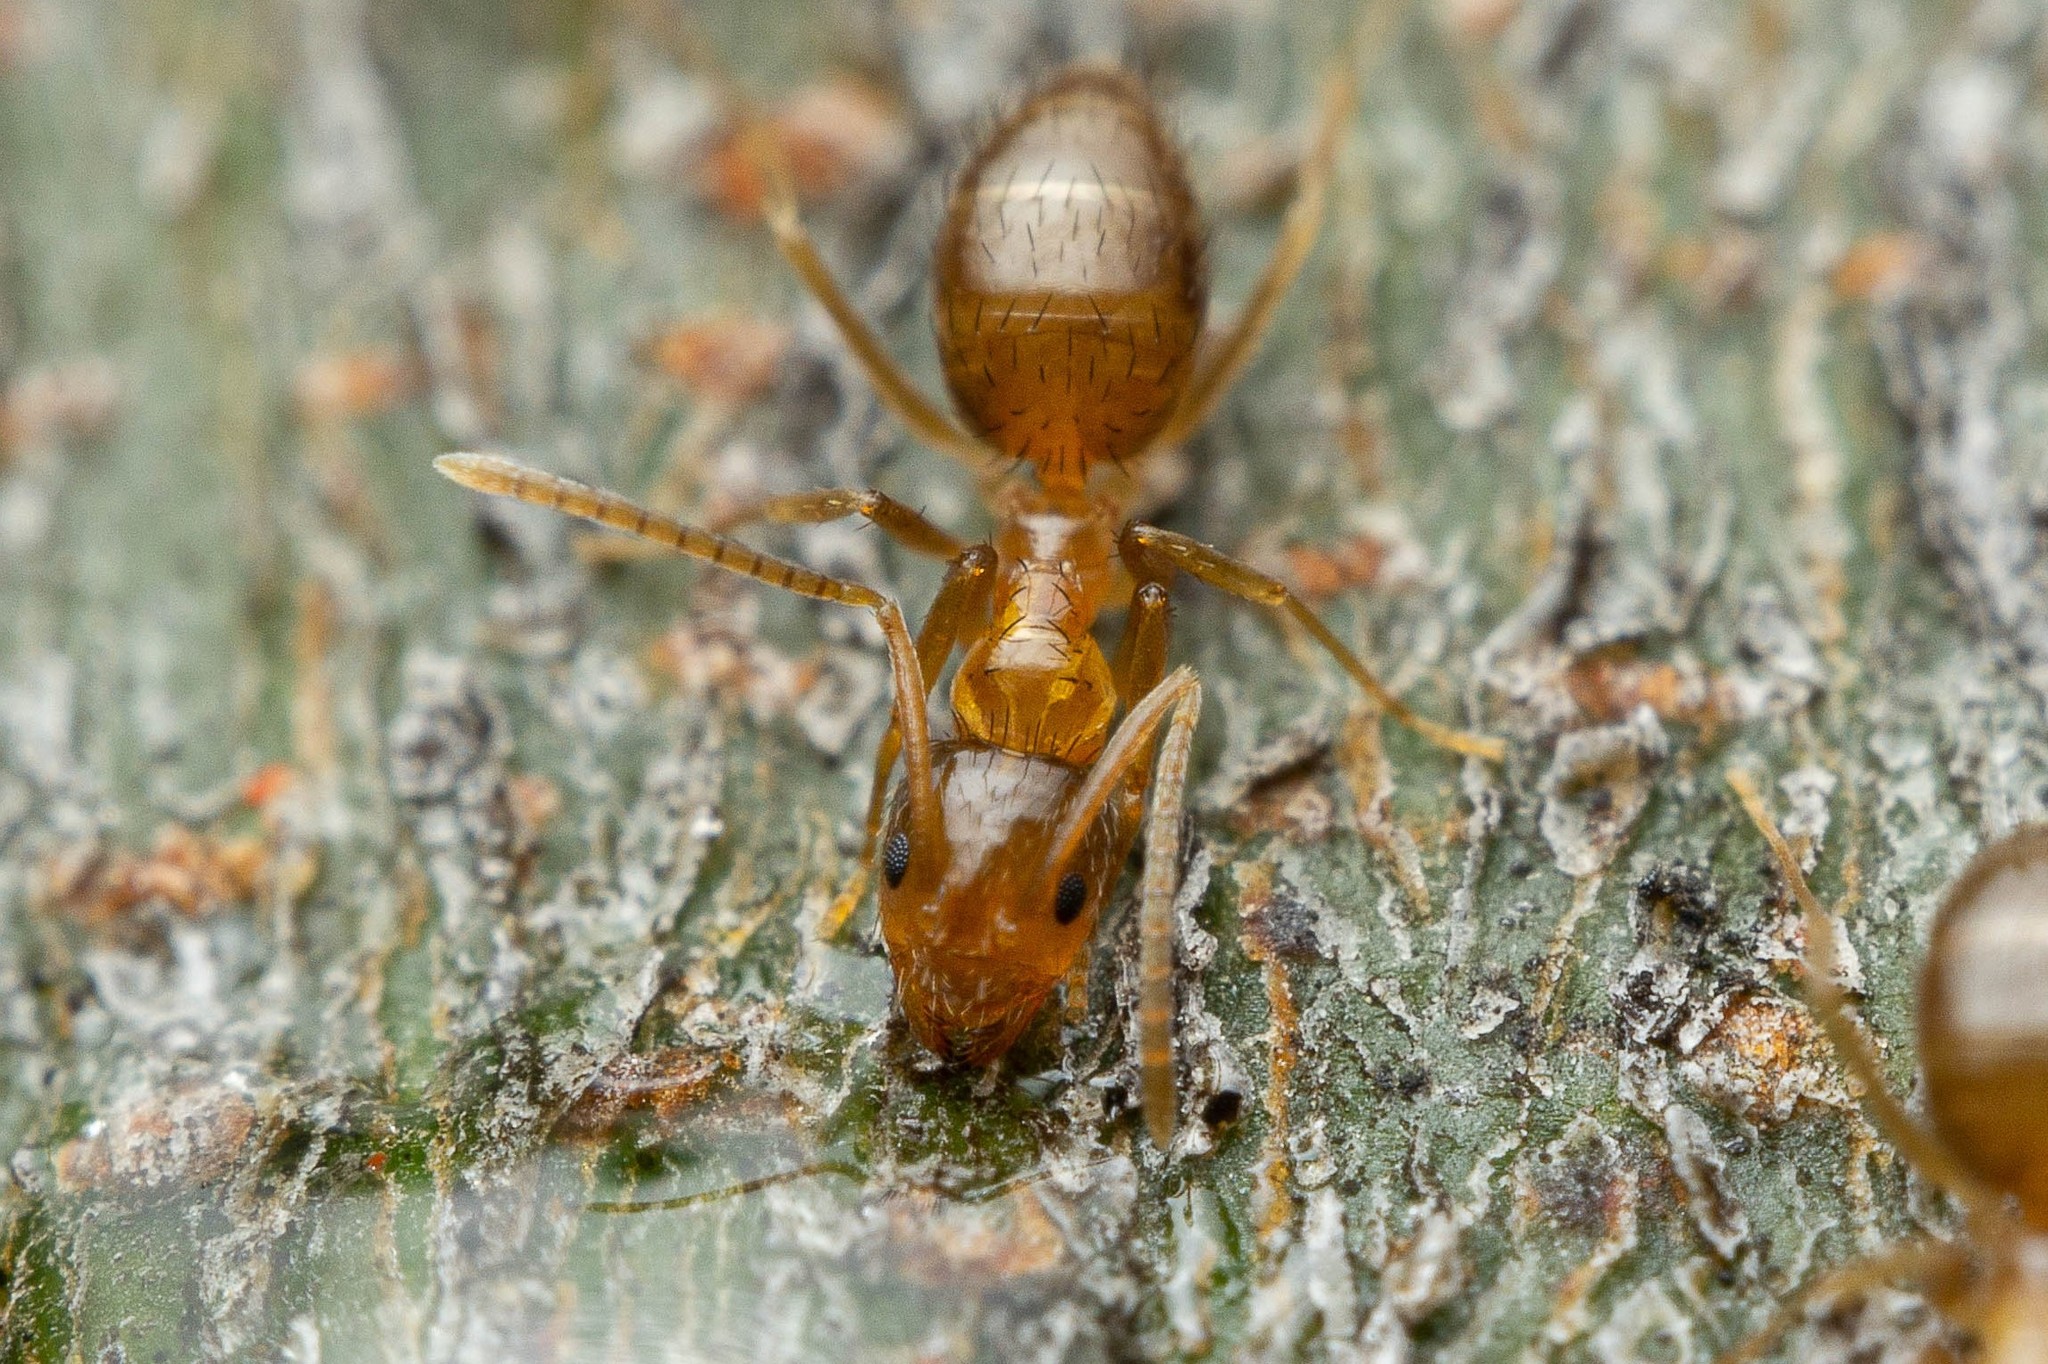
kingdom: Animalia
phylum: Arthropoda
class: Insecta
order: Hymenoptera
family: Formicidae
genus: Nylanderia
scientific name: Nylanderia terricola
